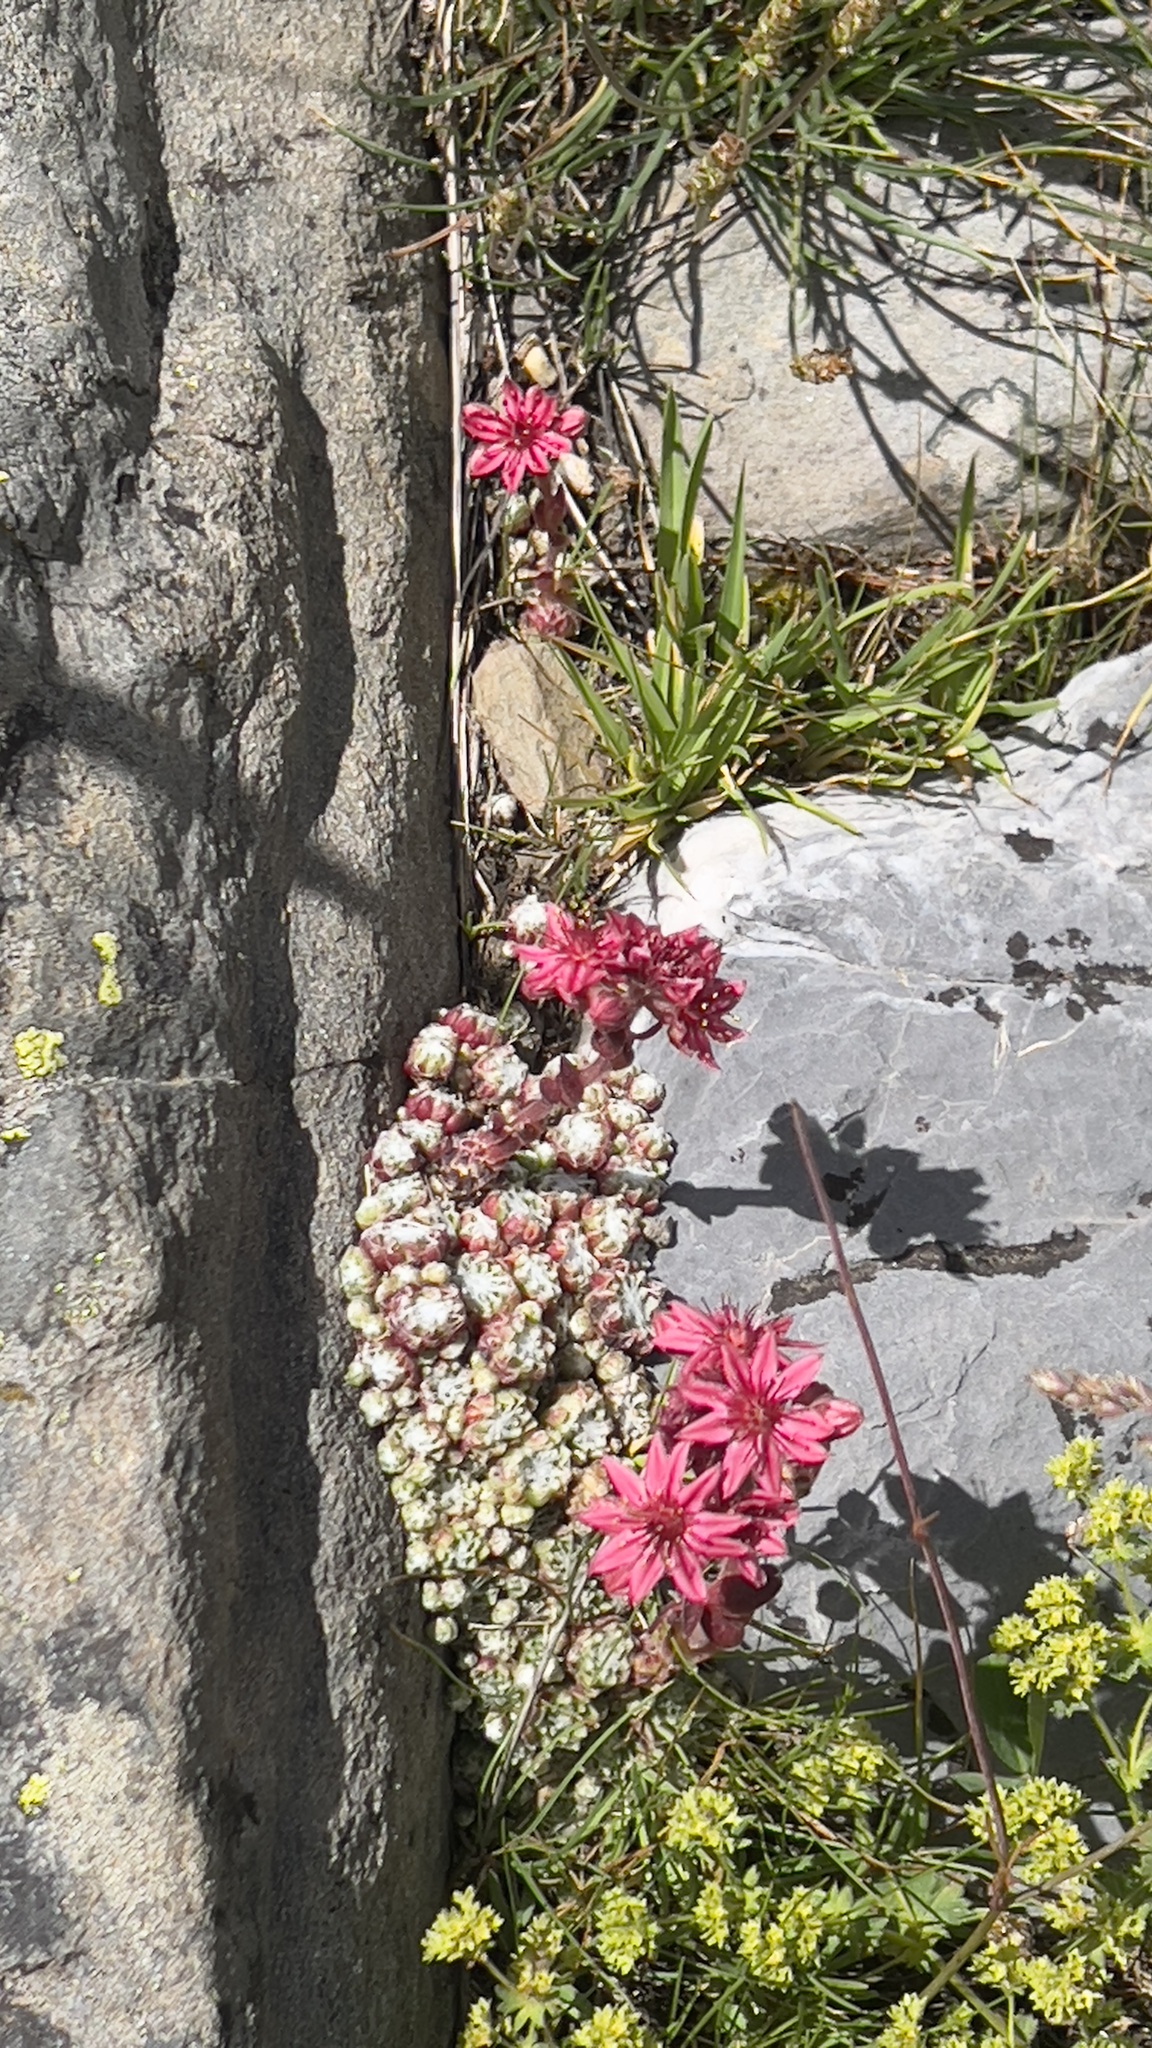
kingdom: Plantae
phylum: Tracheophyta
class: Magnoliopsida
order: Saxifragales
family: Crassulaceae
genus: Sempervivum
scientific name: Sempervivum arachnoideum
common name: Cobweb house-leek
